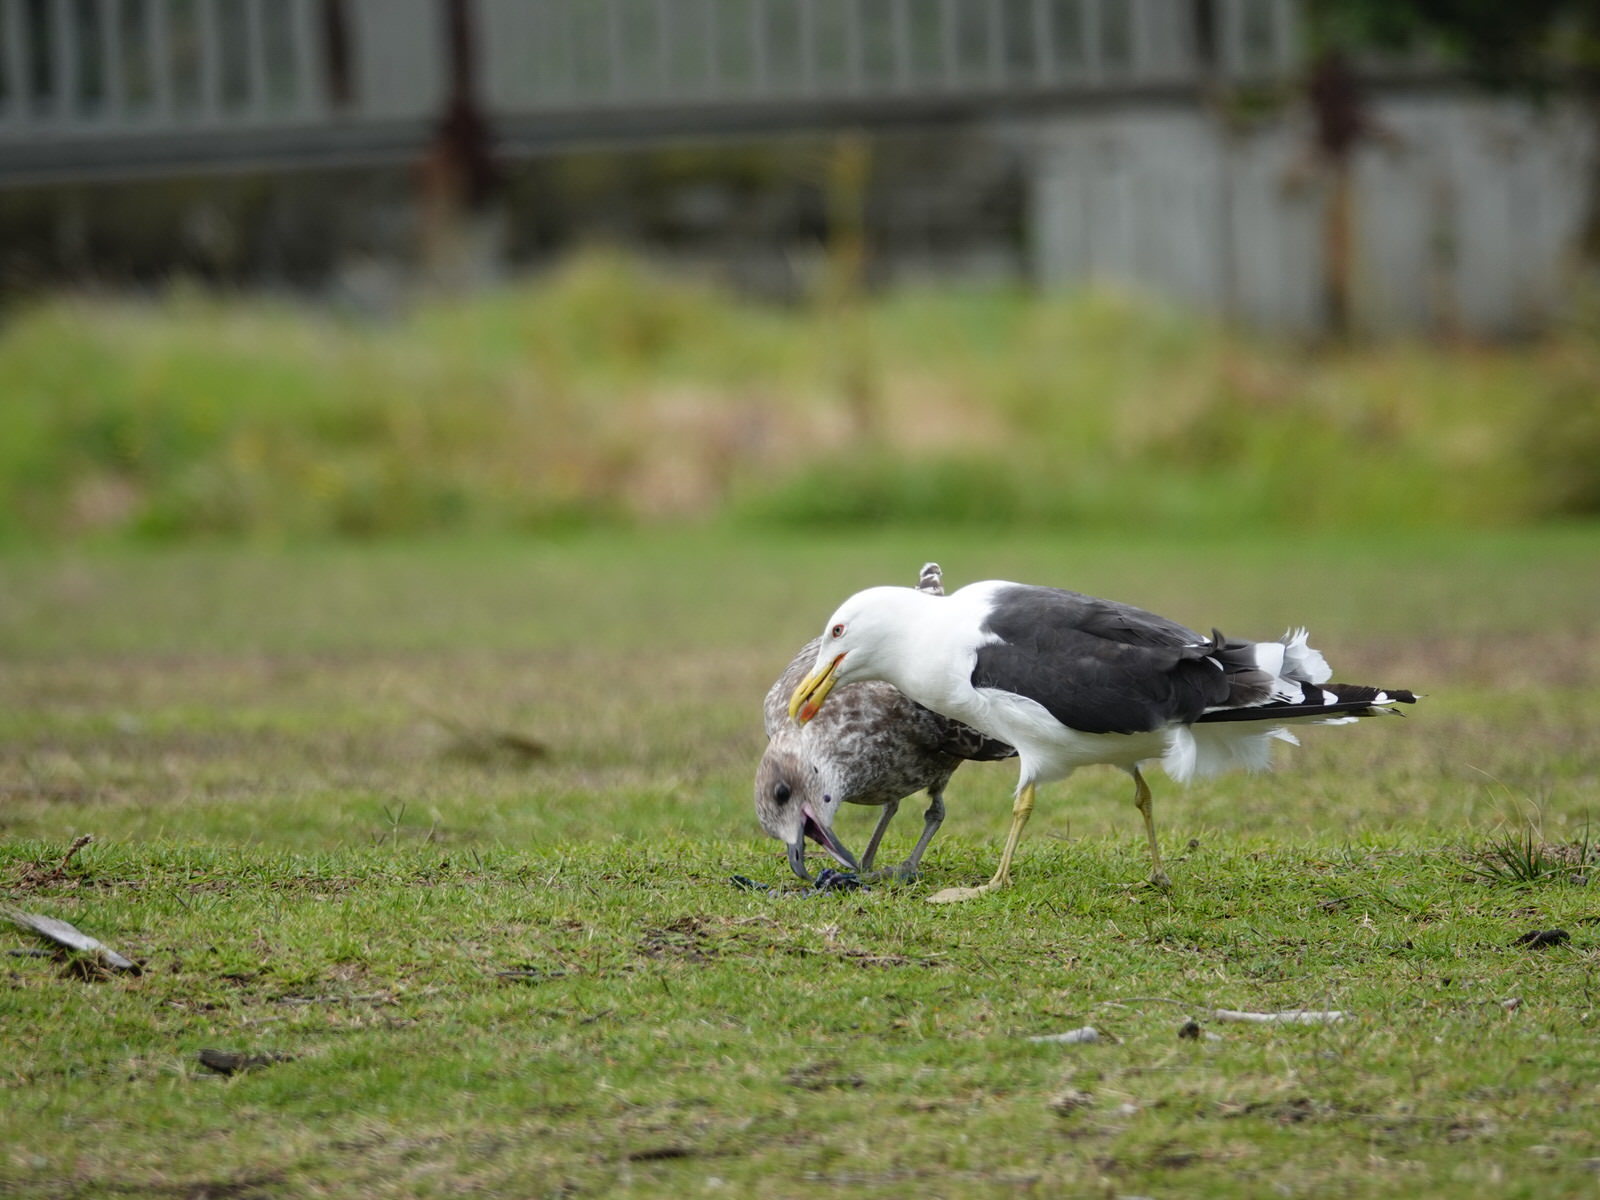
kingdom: Animalia
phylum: Chordata
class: Aves
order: Charadriiformes
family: Laridae
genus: Larus
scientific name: Larus dominicanus
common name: Kelp gull
